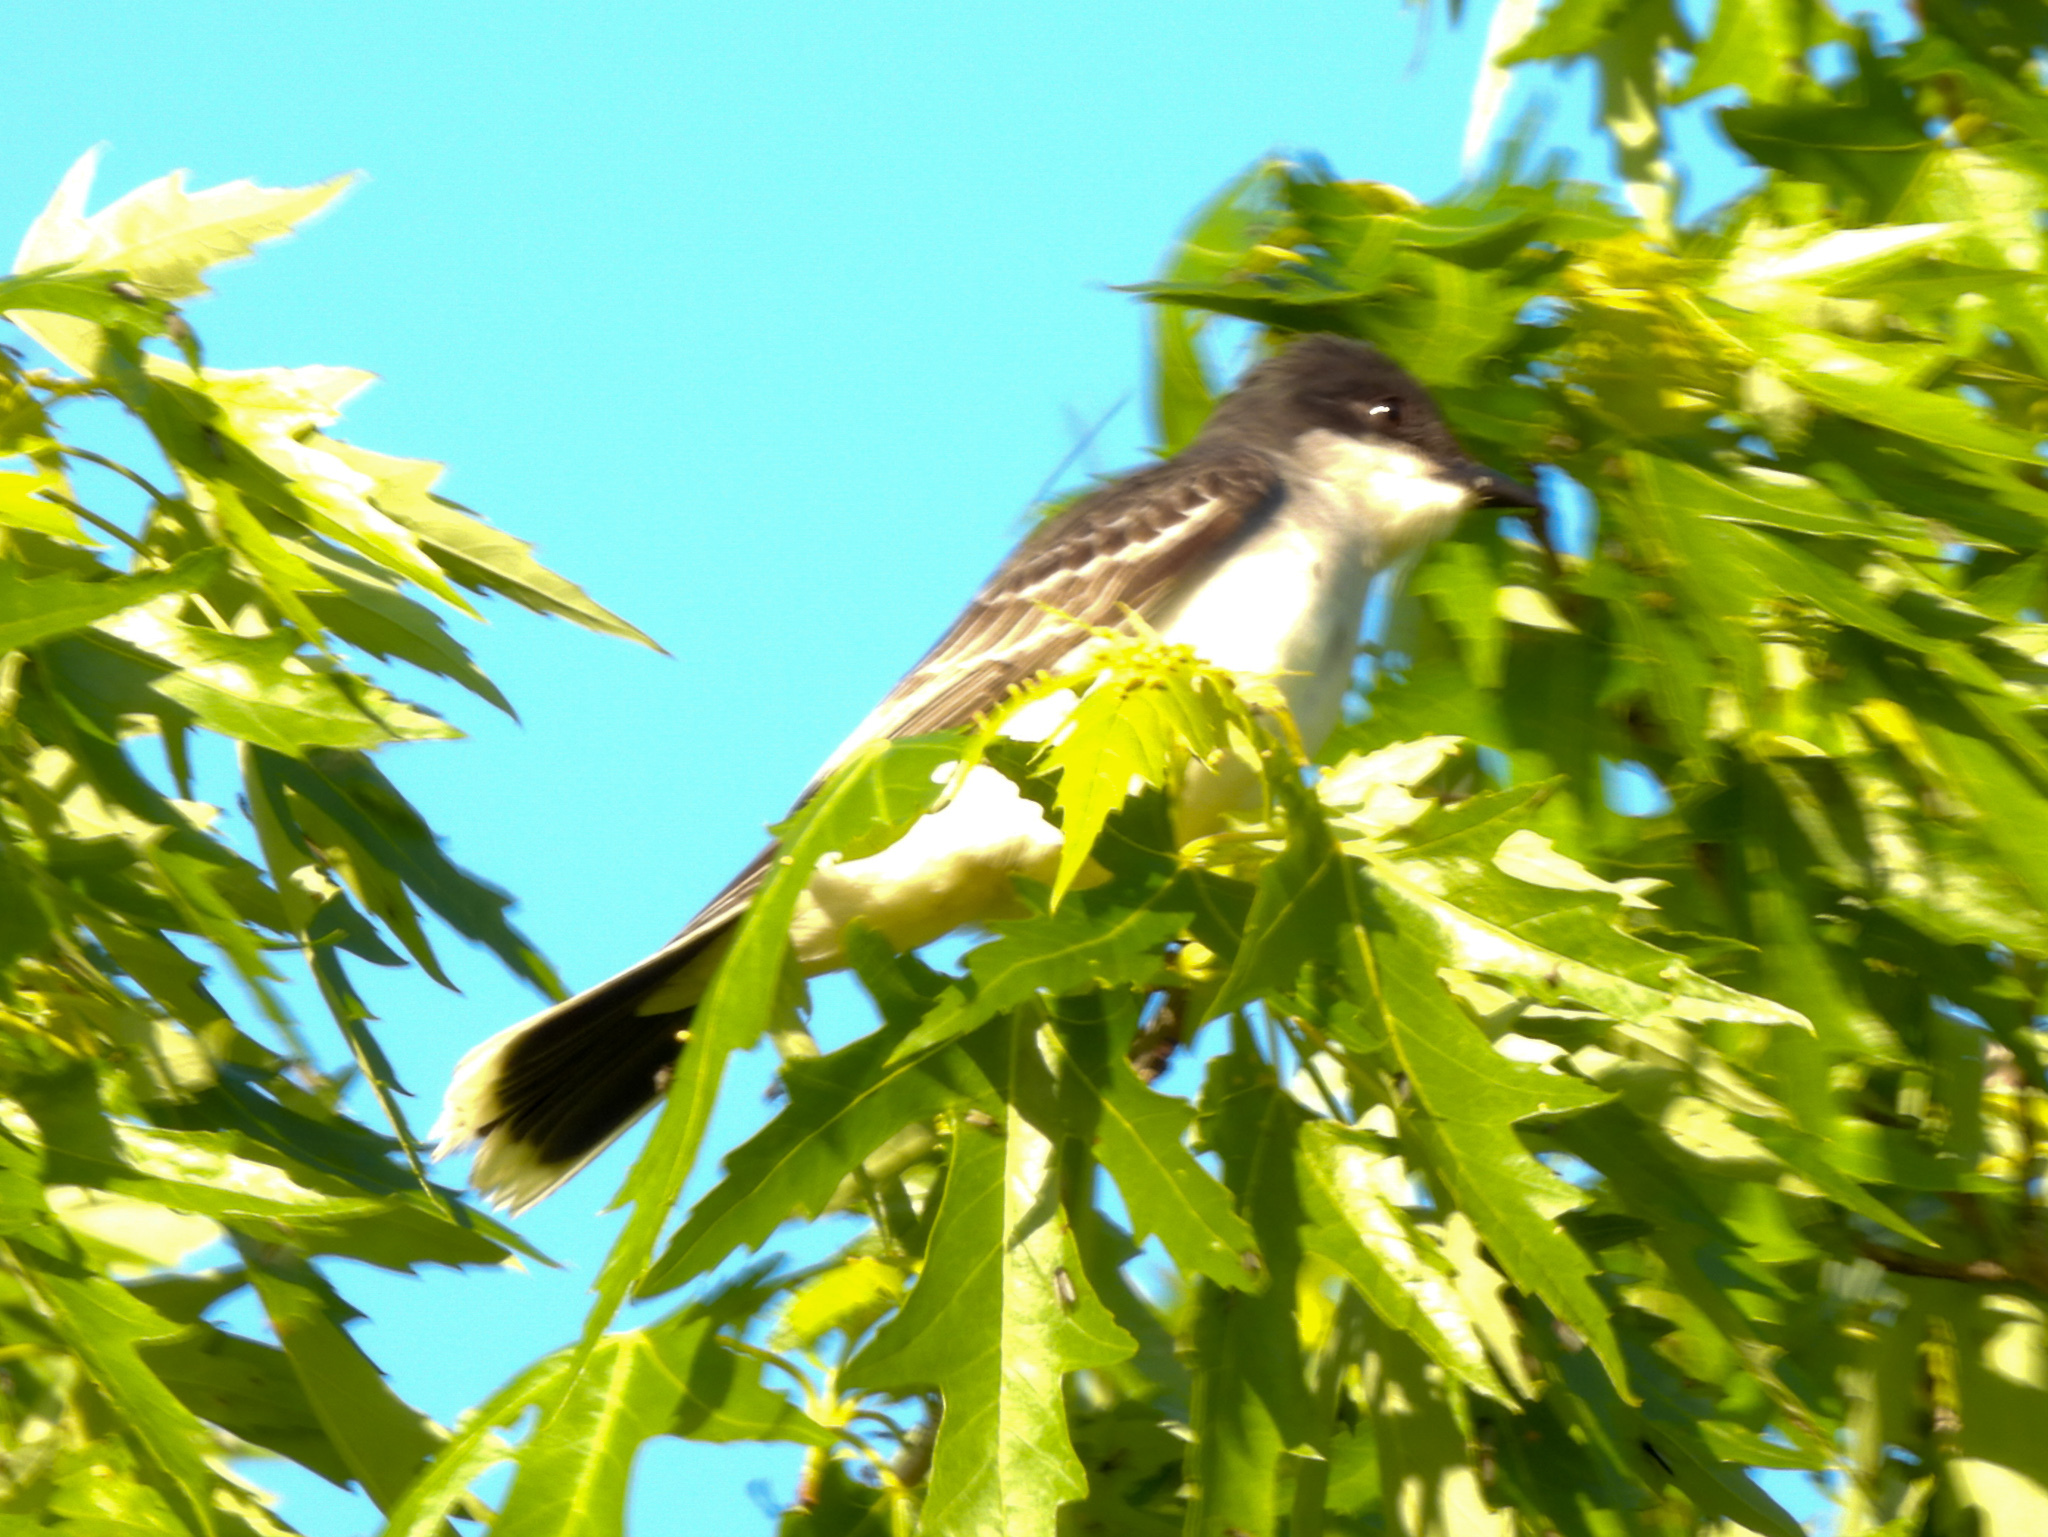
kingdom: Animalia
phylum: Chordata
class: Aves
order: Passeriformes
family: Tyrannidae
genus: Tyrannus
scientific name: Tyrannus tyrannus
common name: Eastern kingbird
